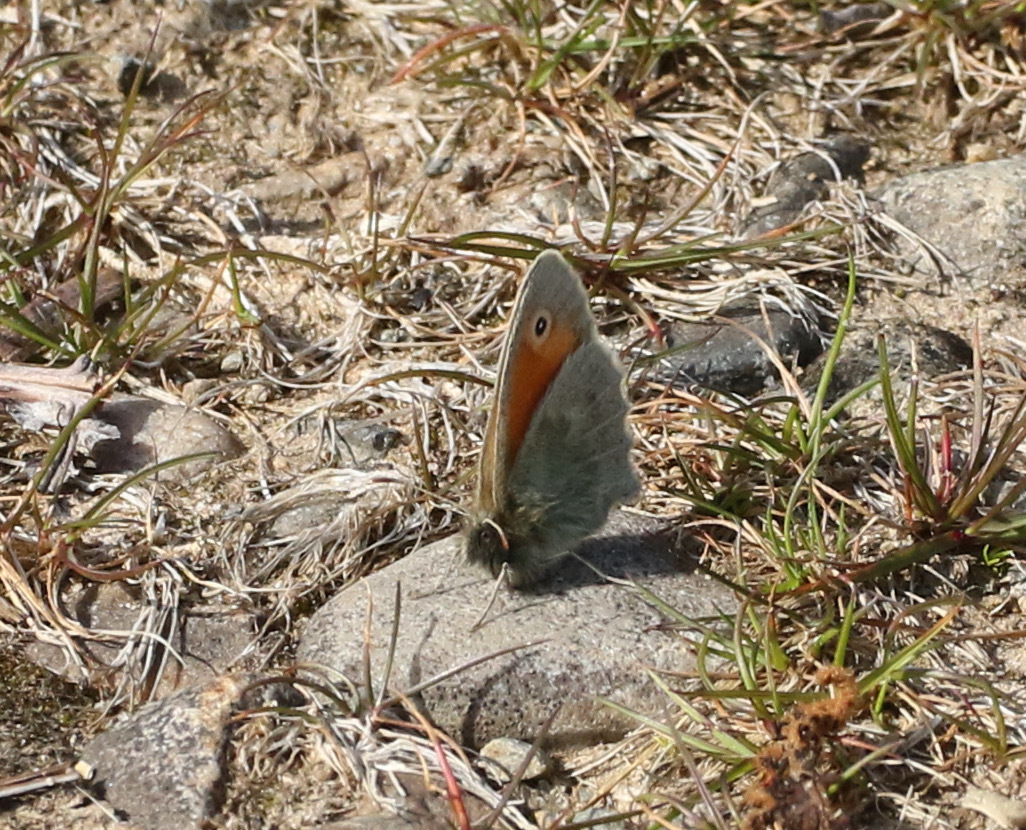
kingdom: Animalia
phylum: Arthropoda
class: Insecta
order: Lepidoptera
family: Nymphalidae
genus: Coenonympha
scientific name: Coenonympha pamphilus
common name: Small heath
